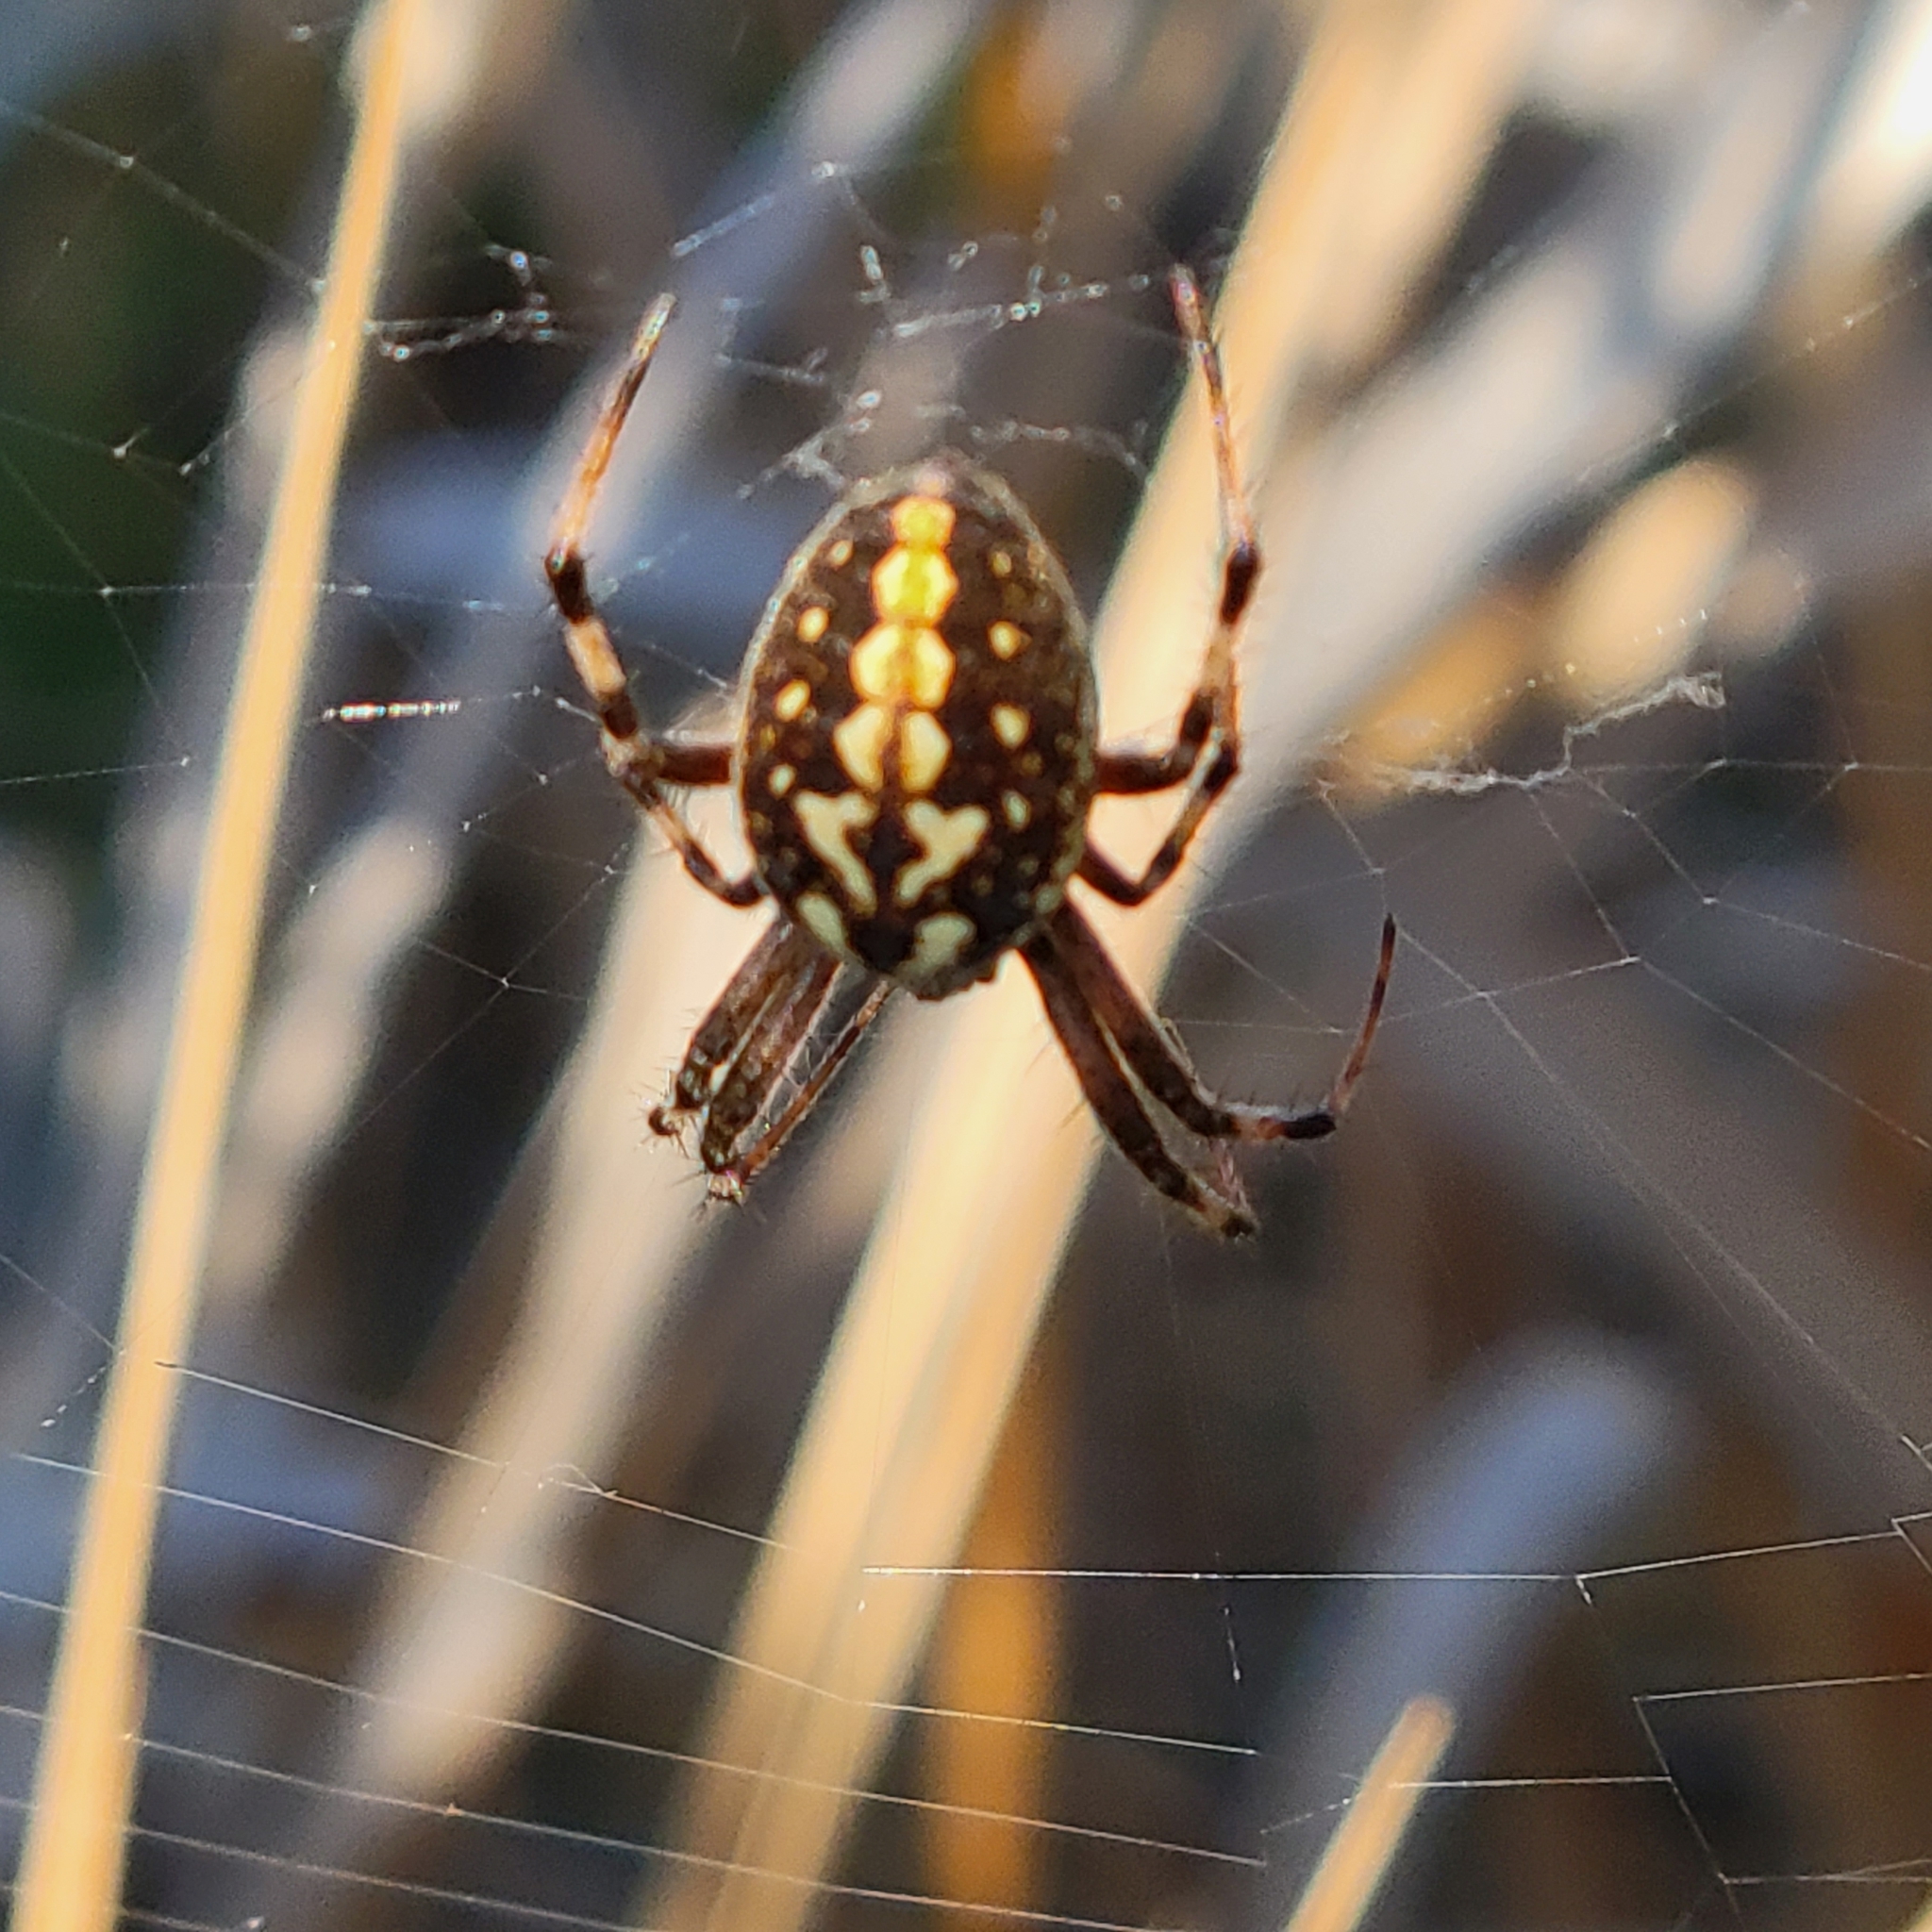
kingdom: Animalia
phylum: Arthropoda
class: Arachnida
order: Araneae
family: Araneidae
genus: Neoscona
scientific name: Neoscona oaxacensis
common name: Orb weavers
